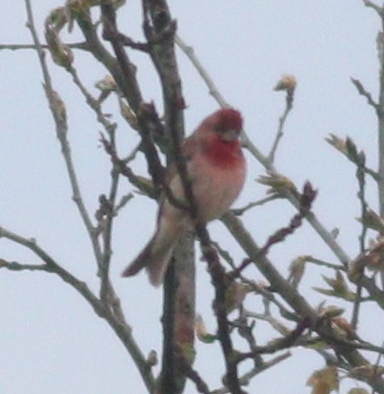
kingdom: Animalia
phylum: Chordata
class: Aves
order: Passeriformes
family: Fringillidae
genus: Carpodacus
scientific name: Carpodacus erythrinus
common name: Common rosefinch
